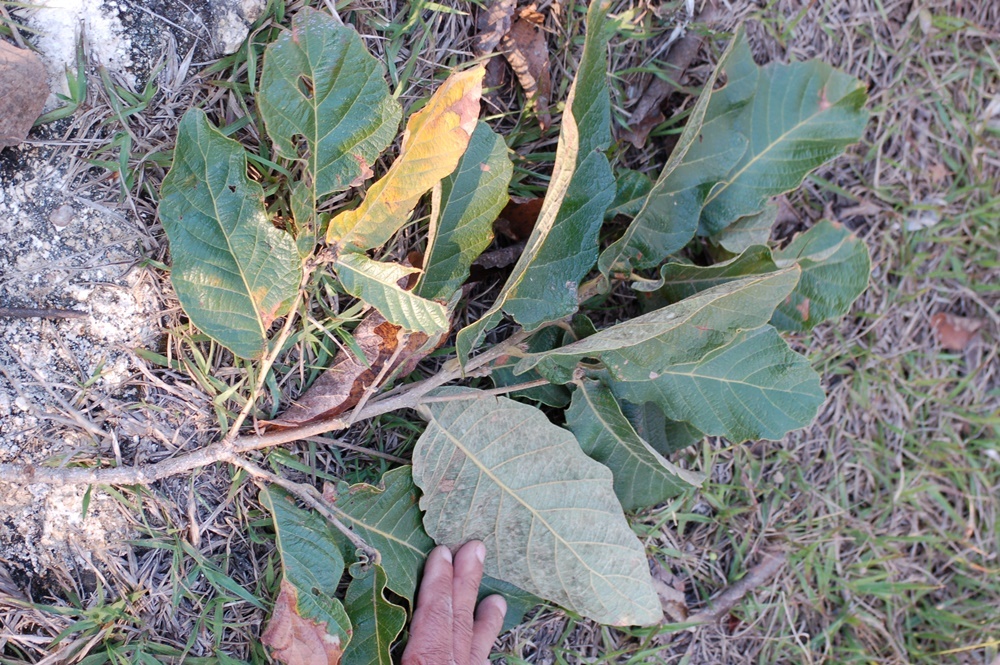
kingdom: Plantae
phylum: Tracheophyta
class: Magnoliopsida
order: Fagales
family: Fagaceae
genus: Quercus
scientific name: Quercus segoviensis
